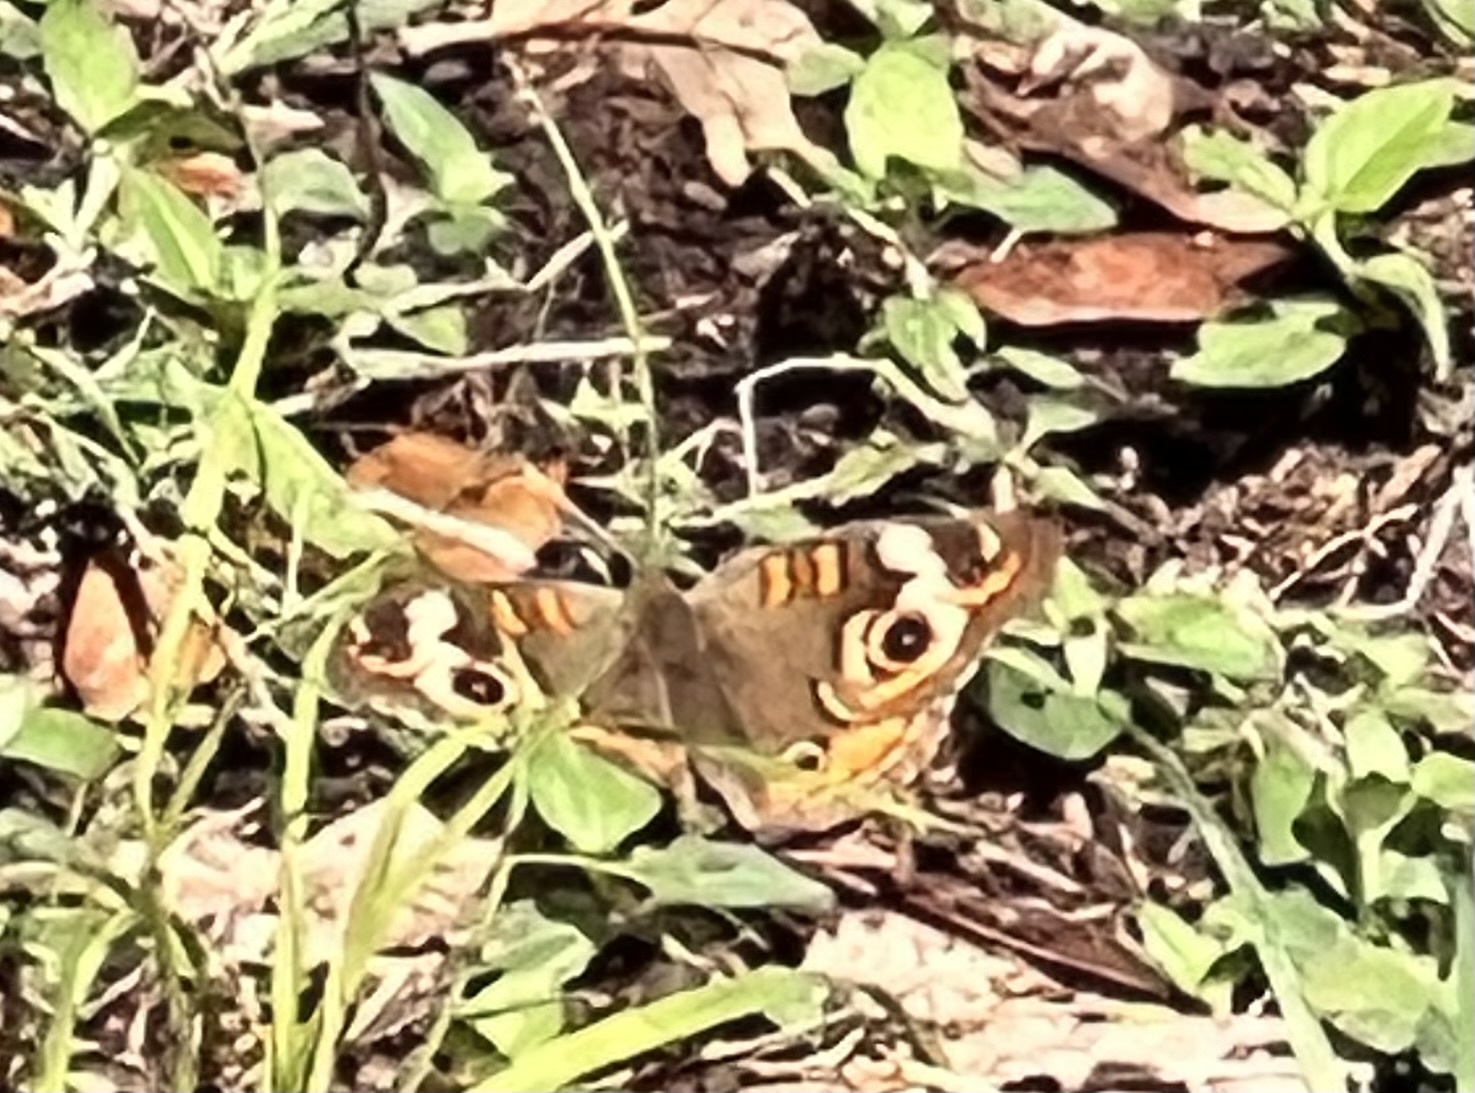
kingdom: Animalia
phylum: Arthropoda
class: Insecta
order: Lepidoptera
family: Nymphalidae
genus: Junonia
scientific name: Junonia coenia
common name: Common buckeye
